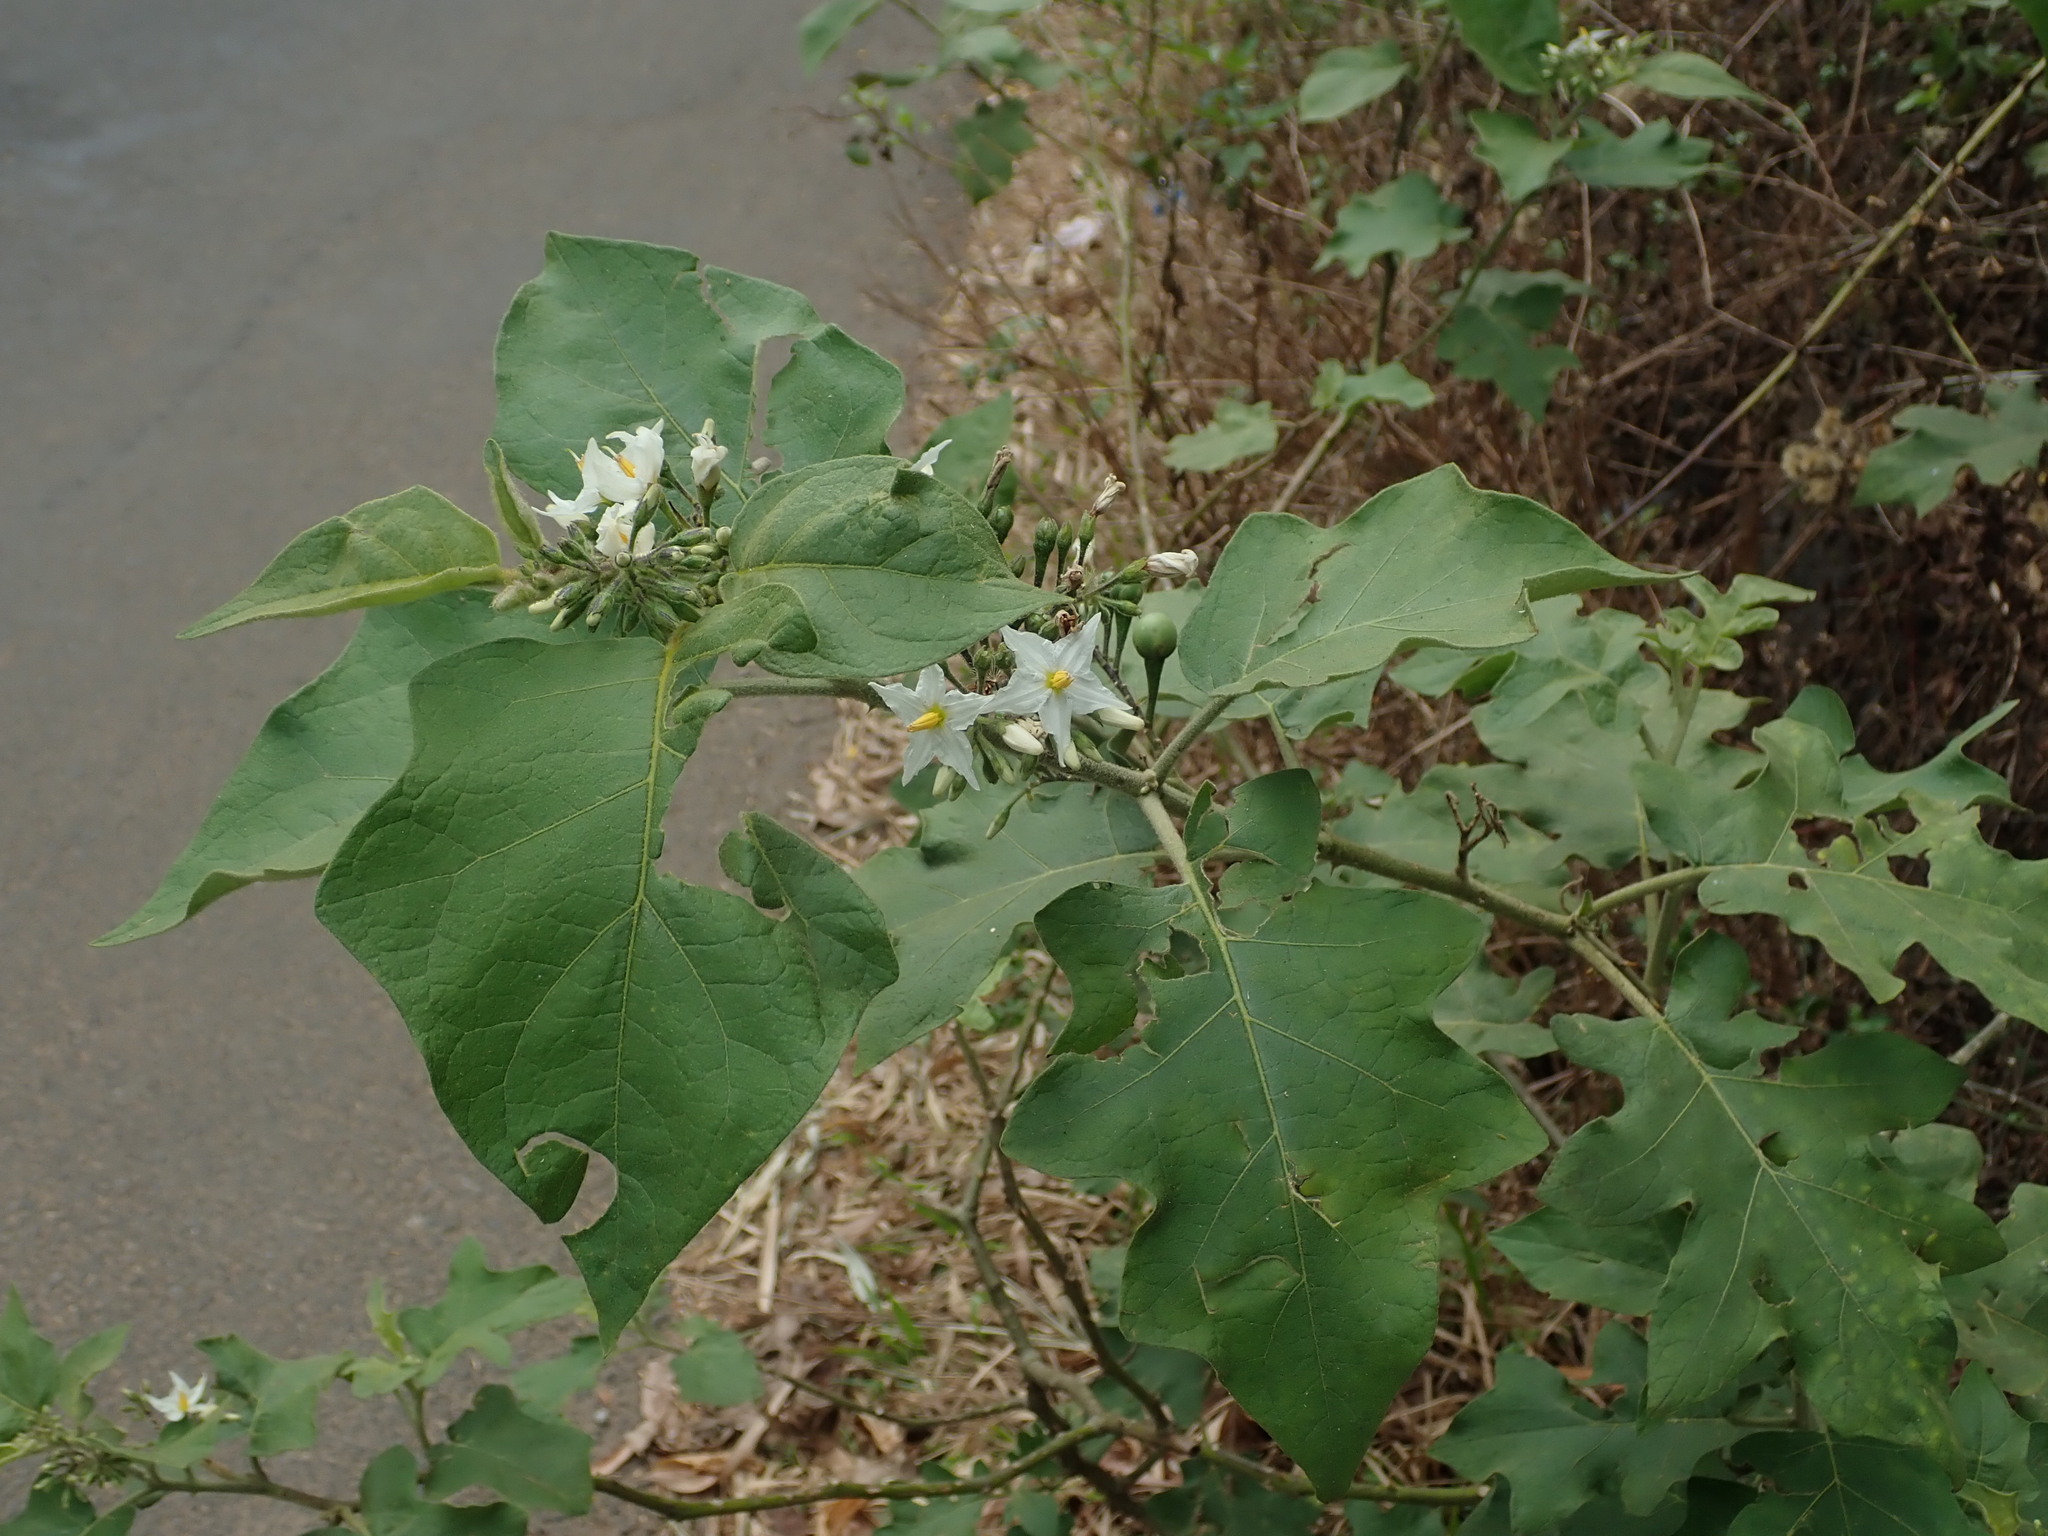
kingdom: Plantae
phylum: Tracheophyta
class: Magnoliopsida
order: Solanales
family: Solanaceae
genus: Solanum
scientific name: Solanum torvum
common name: Turkey berry
